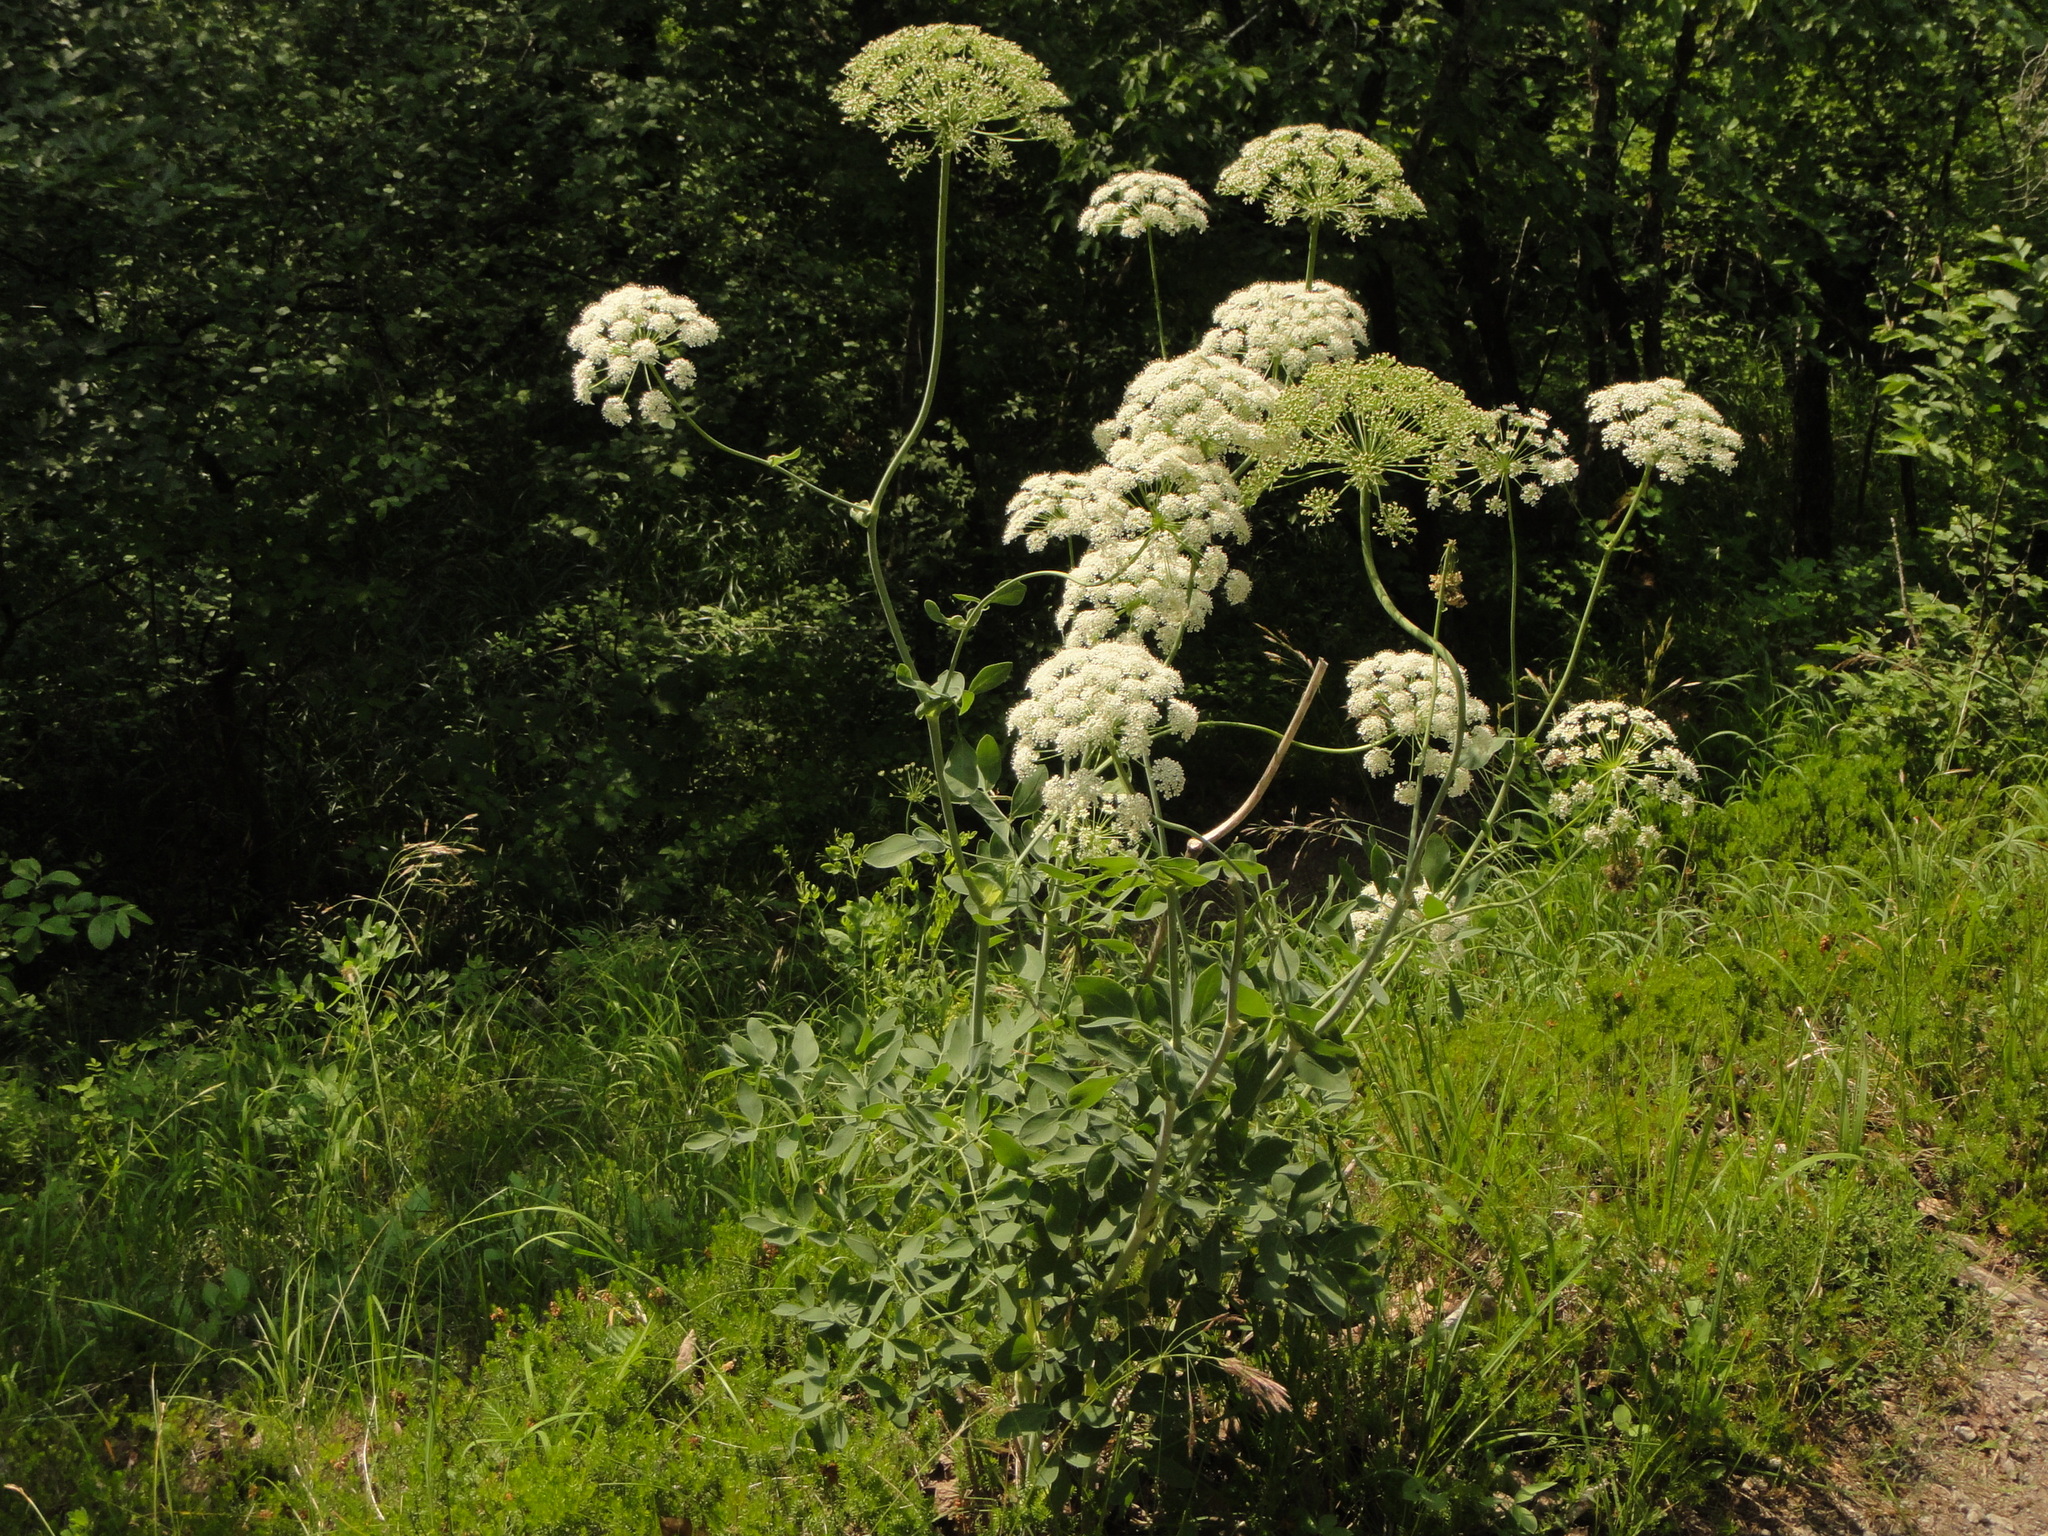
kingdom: Plantae
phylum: Tracheophyta
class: Magnoliopsida
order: Apiales
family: Apiaceae
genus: Siler
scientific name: Siler montanum
